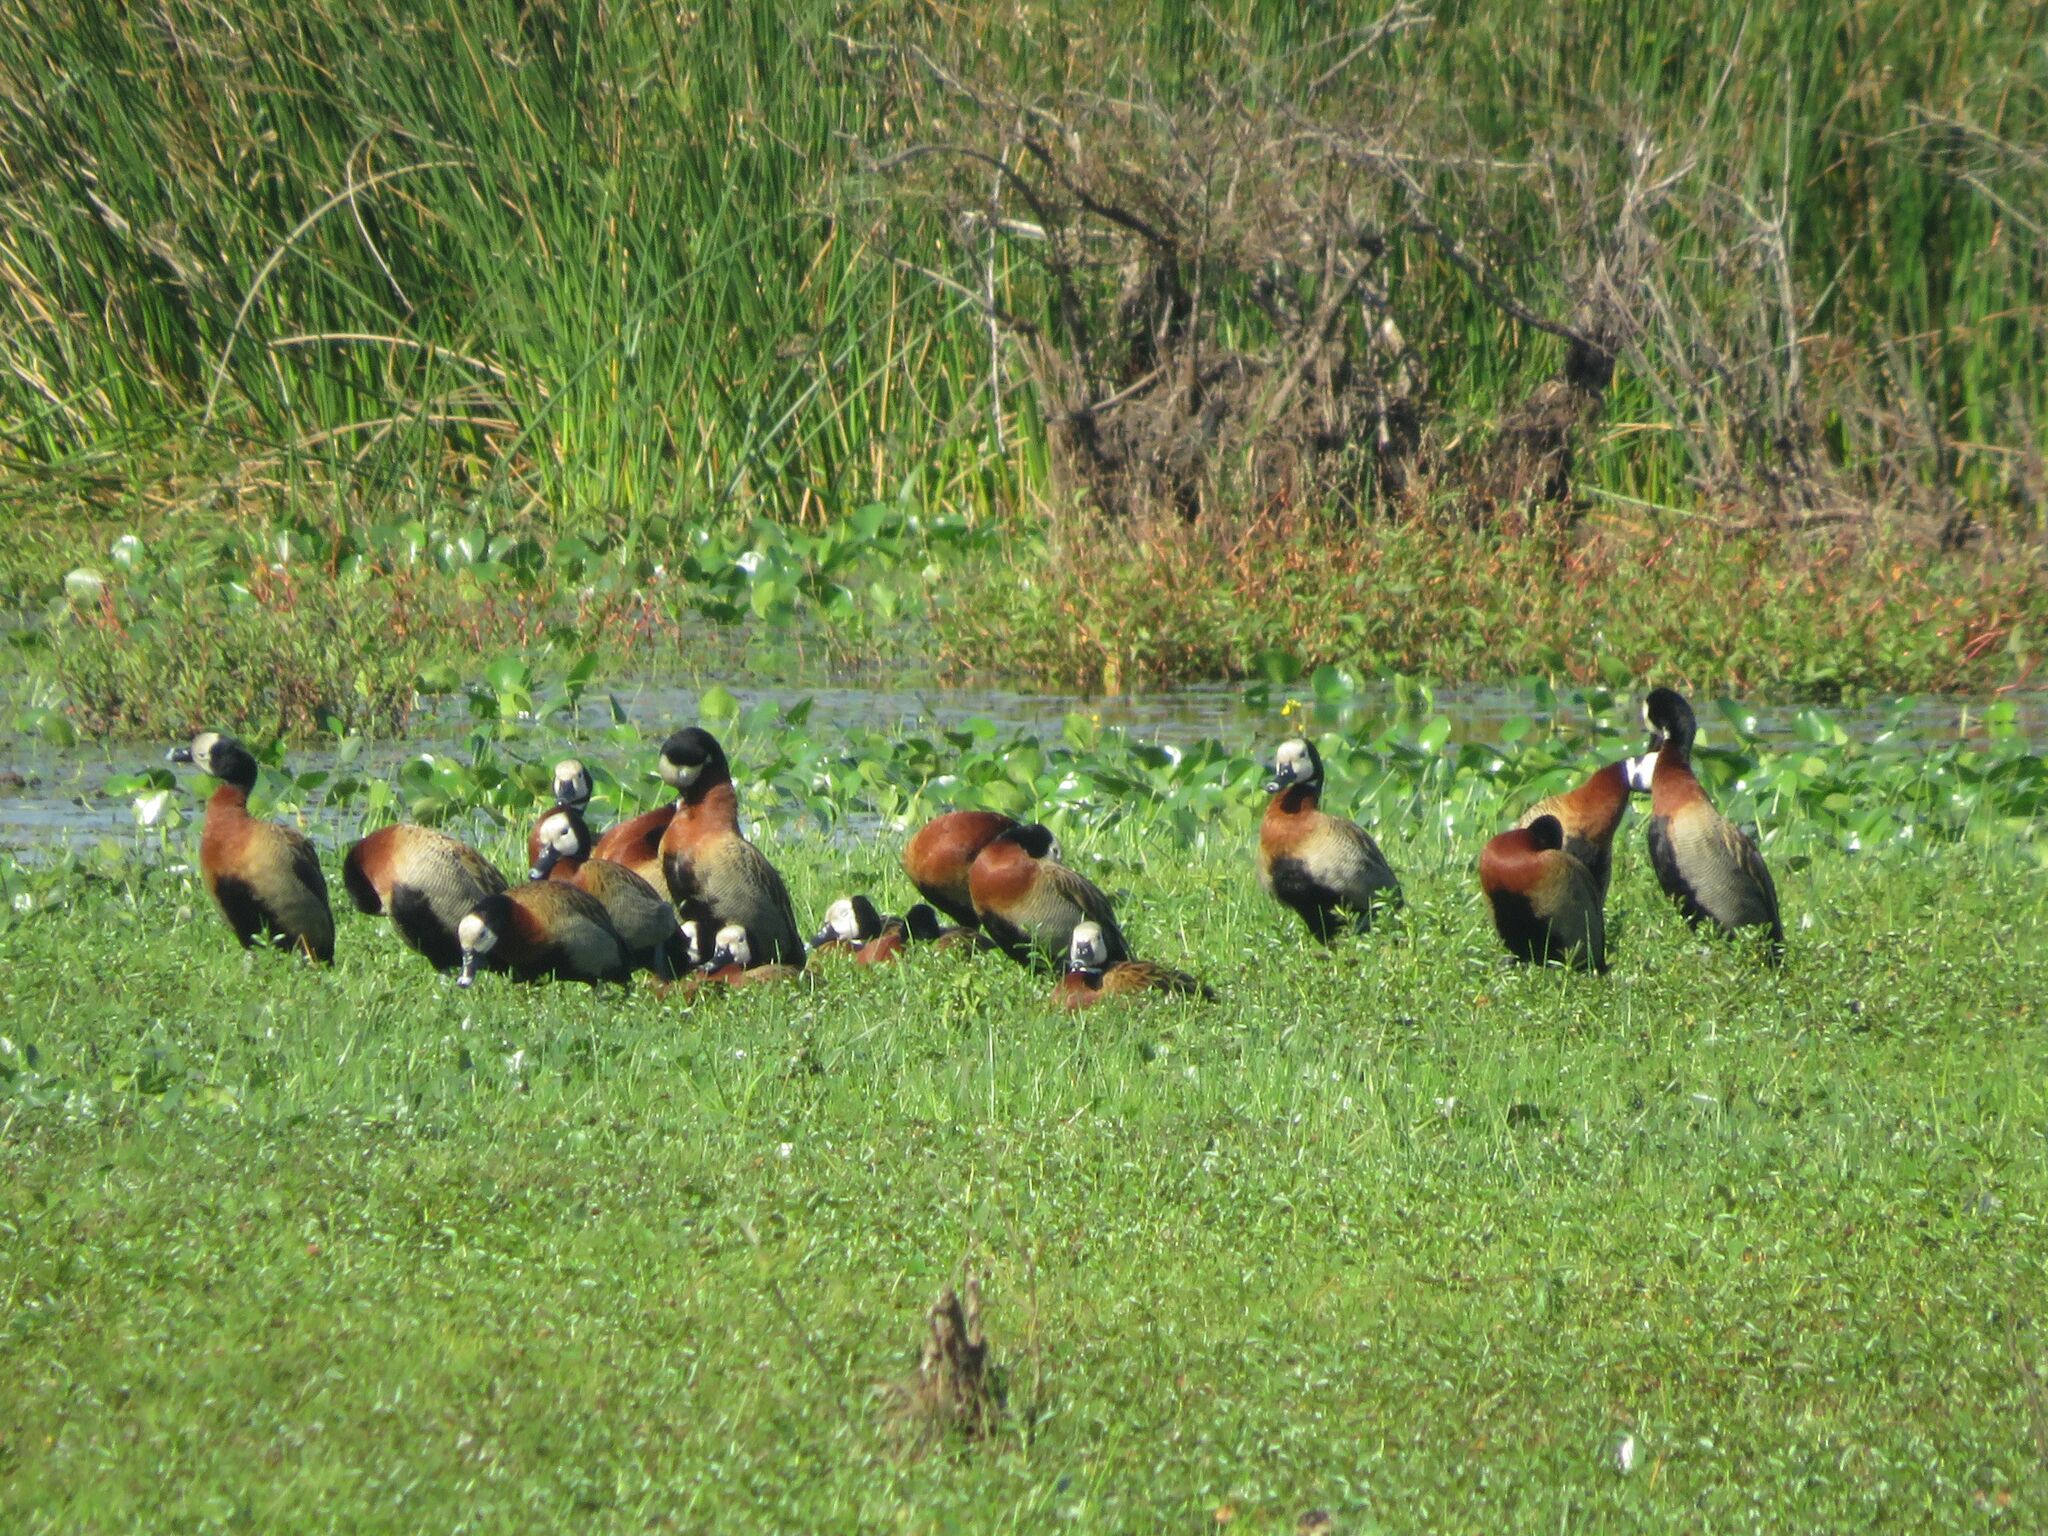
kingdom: Animalia
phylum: Chordata
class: Aves
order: Anseriformes
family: Anatidae
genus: Dendrocygna
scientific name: Dendrocygna viduata
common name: White-faced whistling duck
